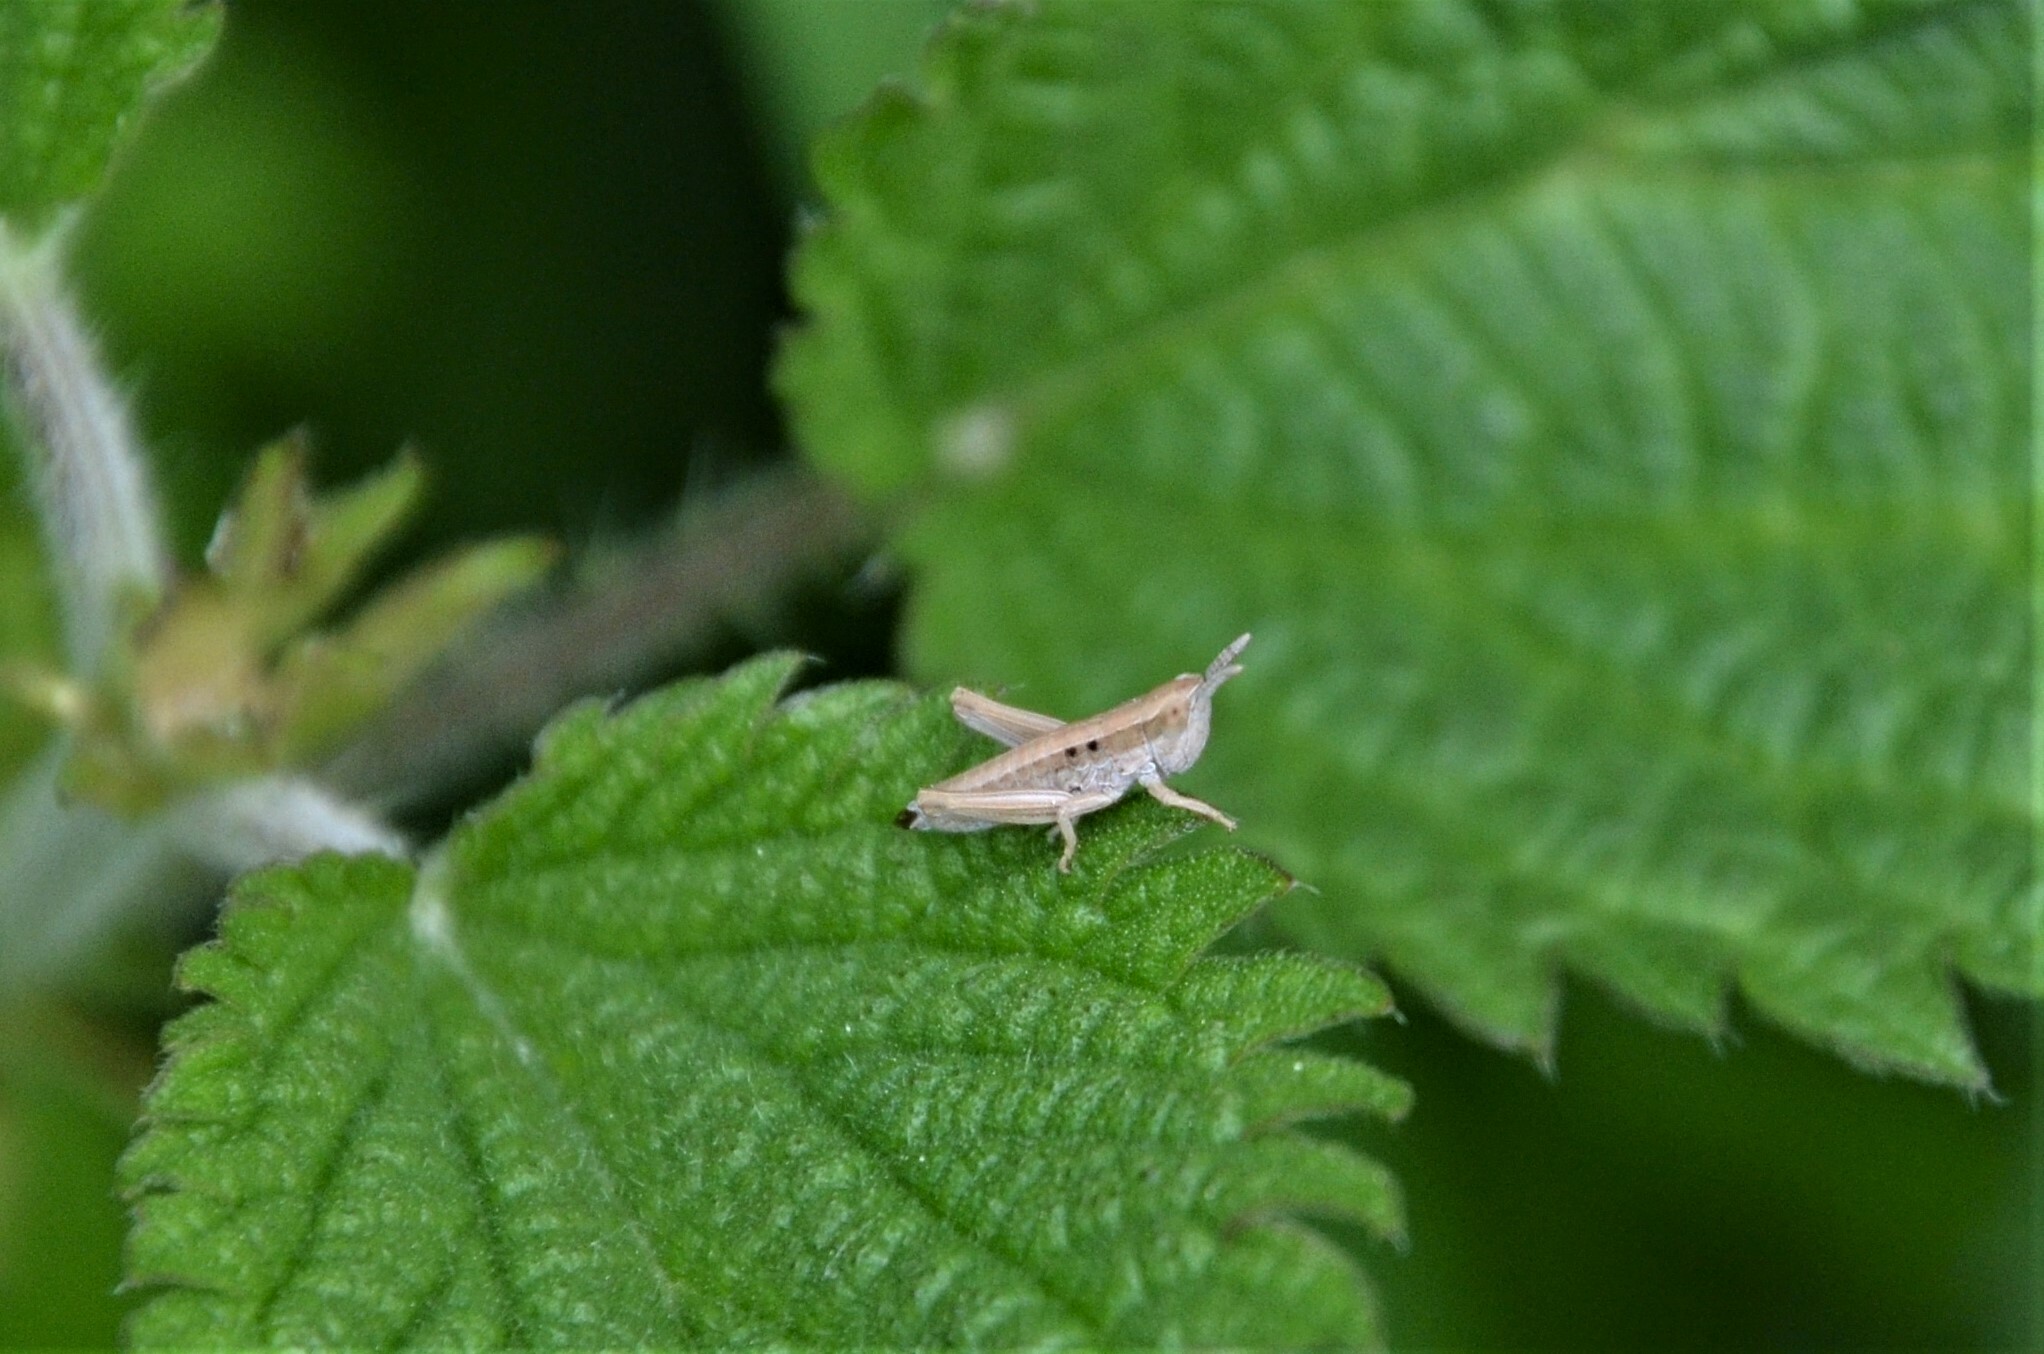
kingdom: Animalia
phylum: Arthropoda
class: Insecta
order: Orthoptera
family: Acrididae
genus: Euthystira
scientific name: Euthystira brachyptera
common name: Small gold grasshopper
